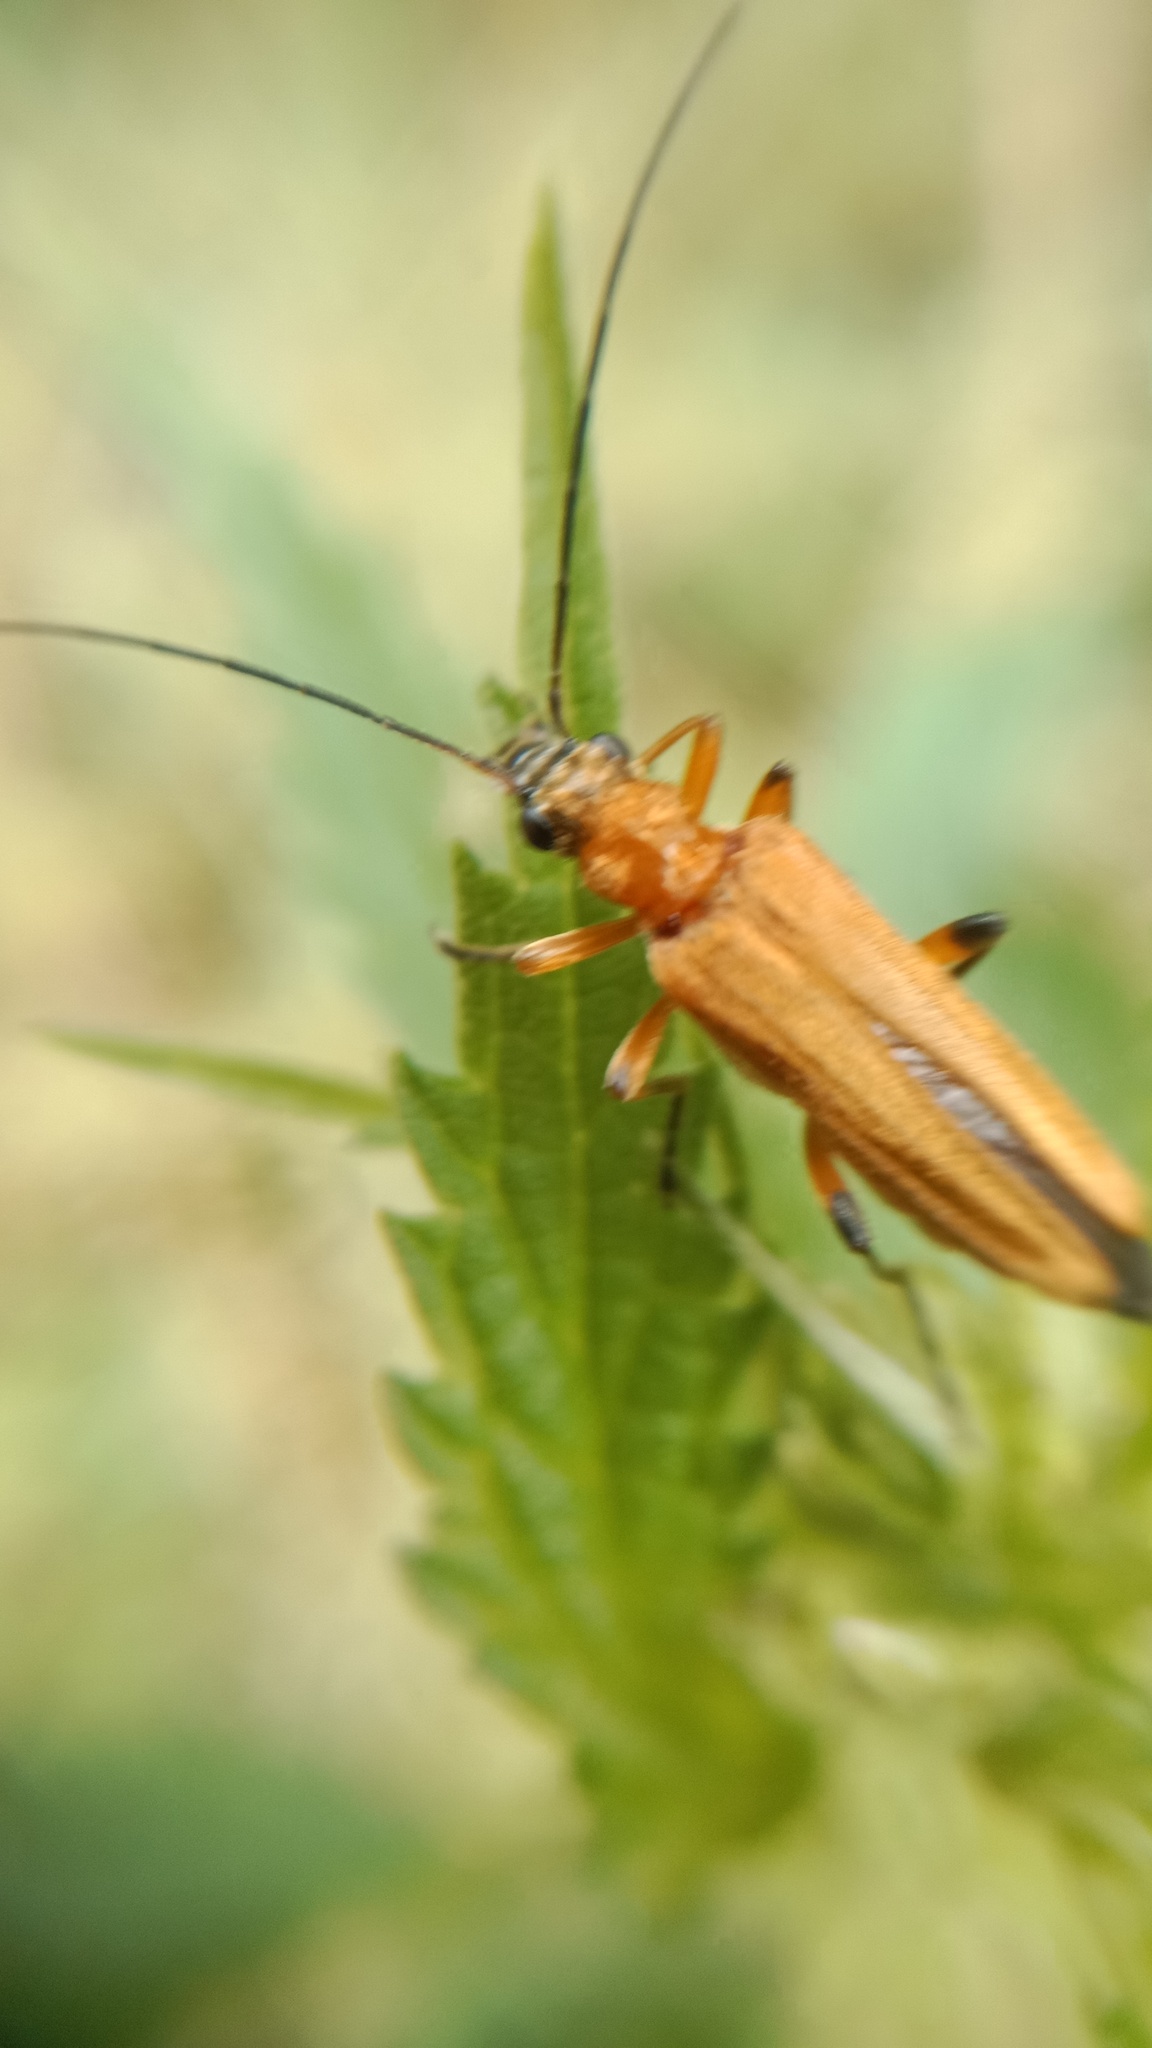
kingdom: Animalia
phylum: Arthropoda
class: Insecta
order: Coleoptera
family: Oedemeridae
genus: Oedemera
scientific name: Oedemera podagrariae
